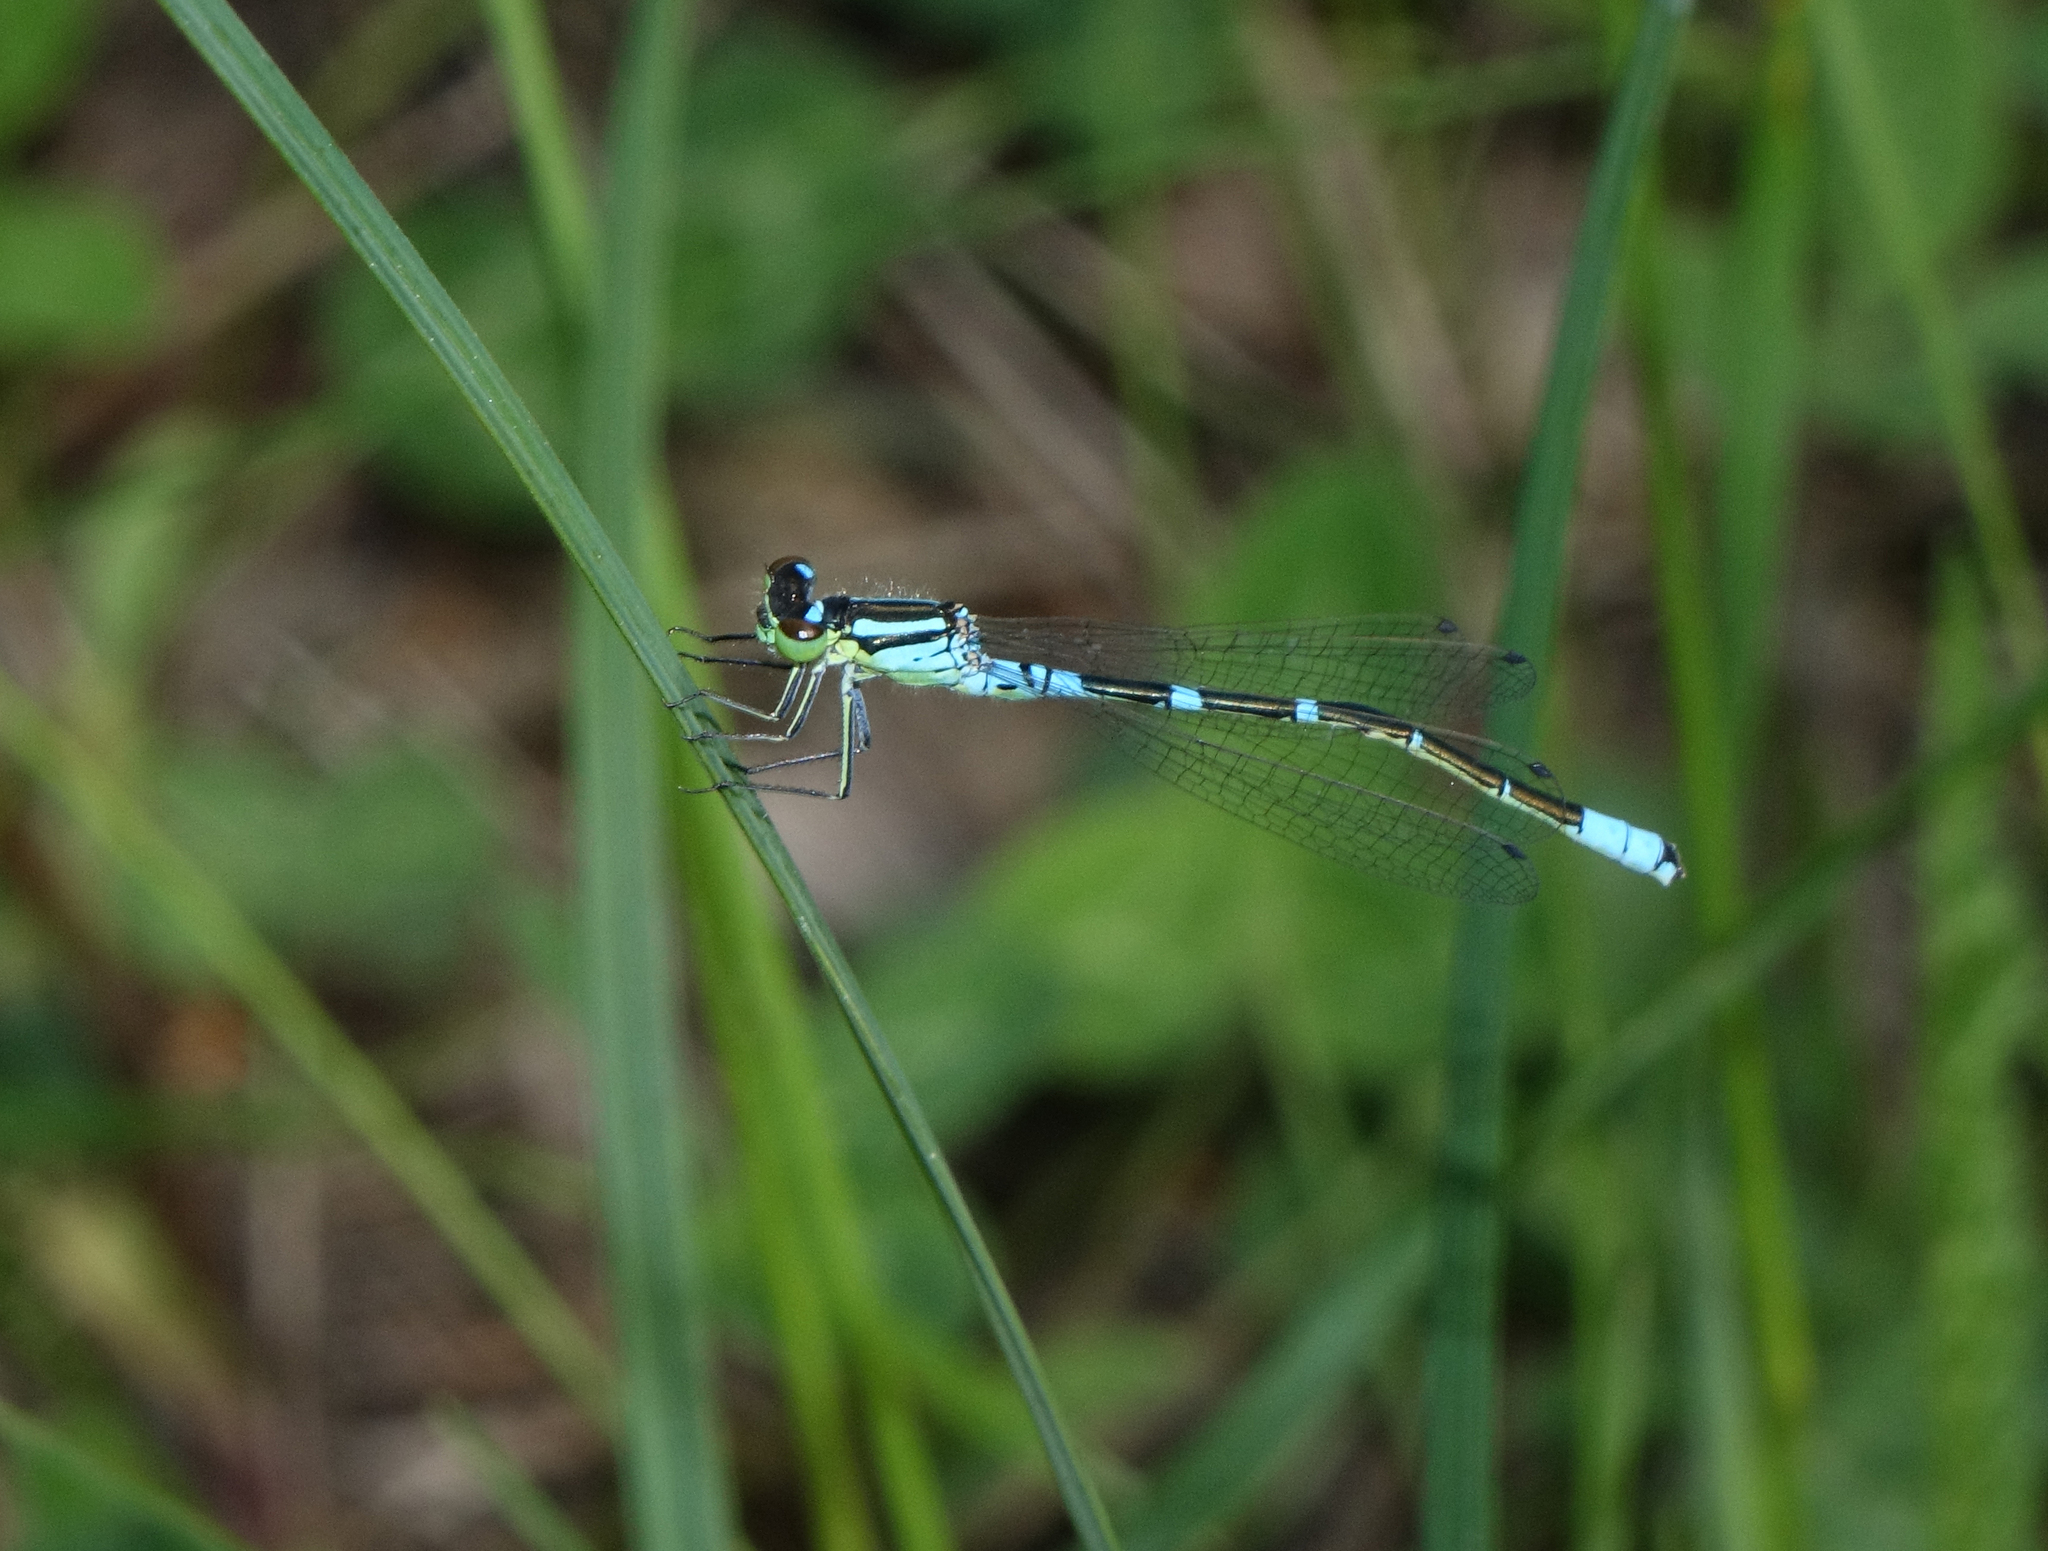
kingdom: Animalia
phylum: Arthropoda
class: Insecta
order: Odonata
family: Coenagrionidae
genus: Coenagrion
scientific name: Coenagrion lunulatum
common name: Irish damselfly
